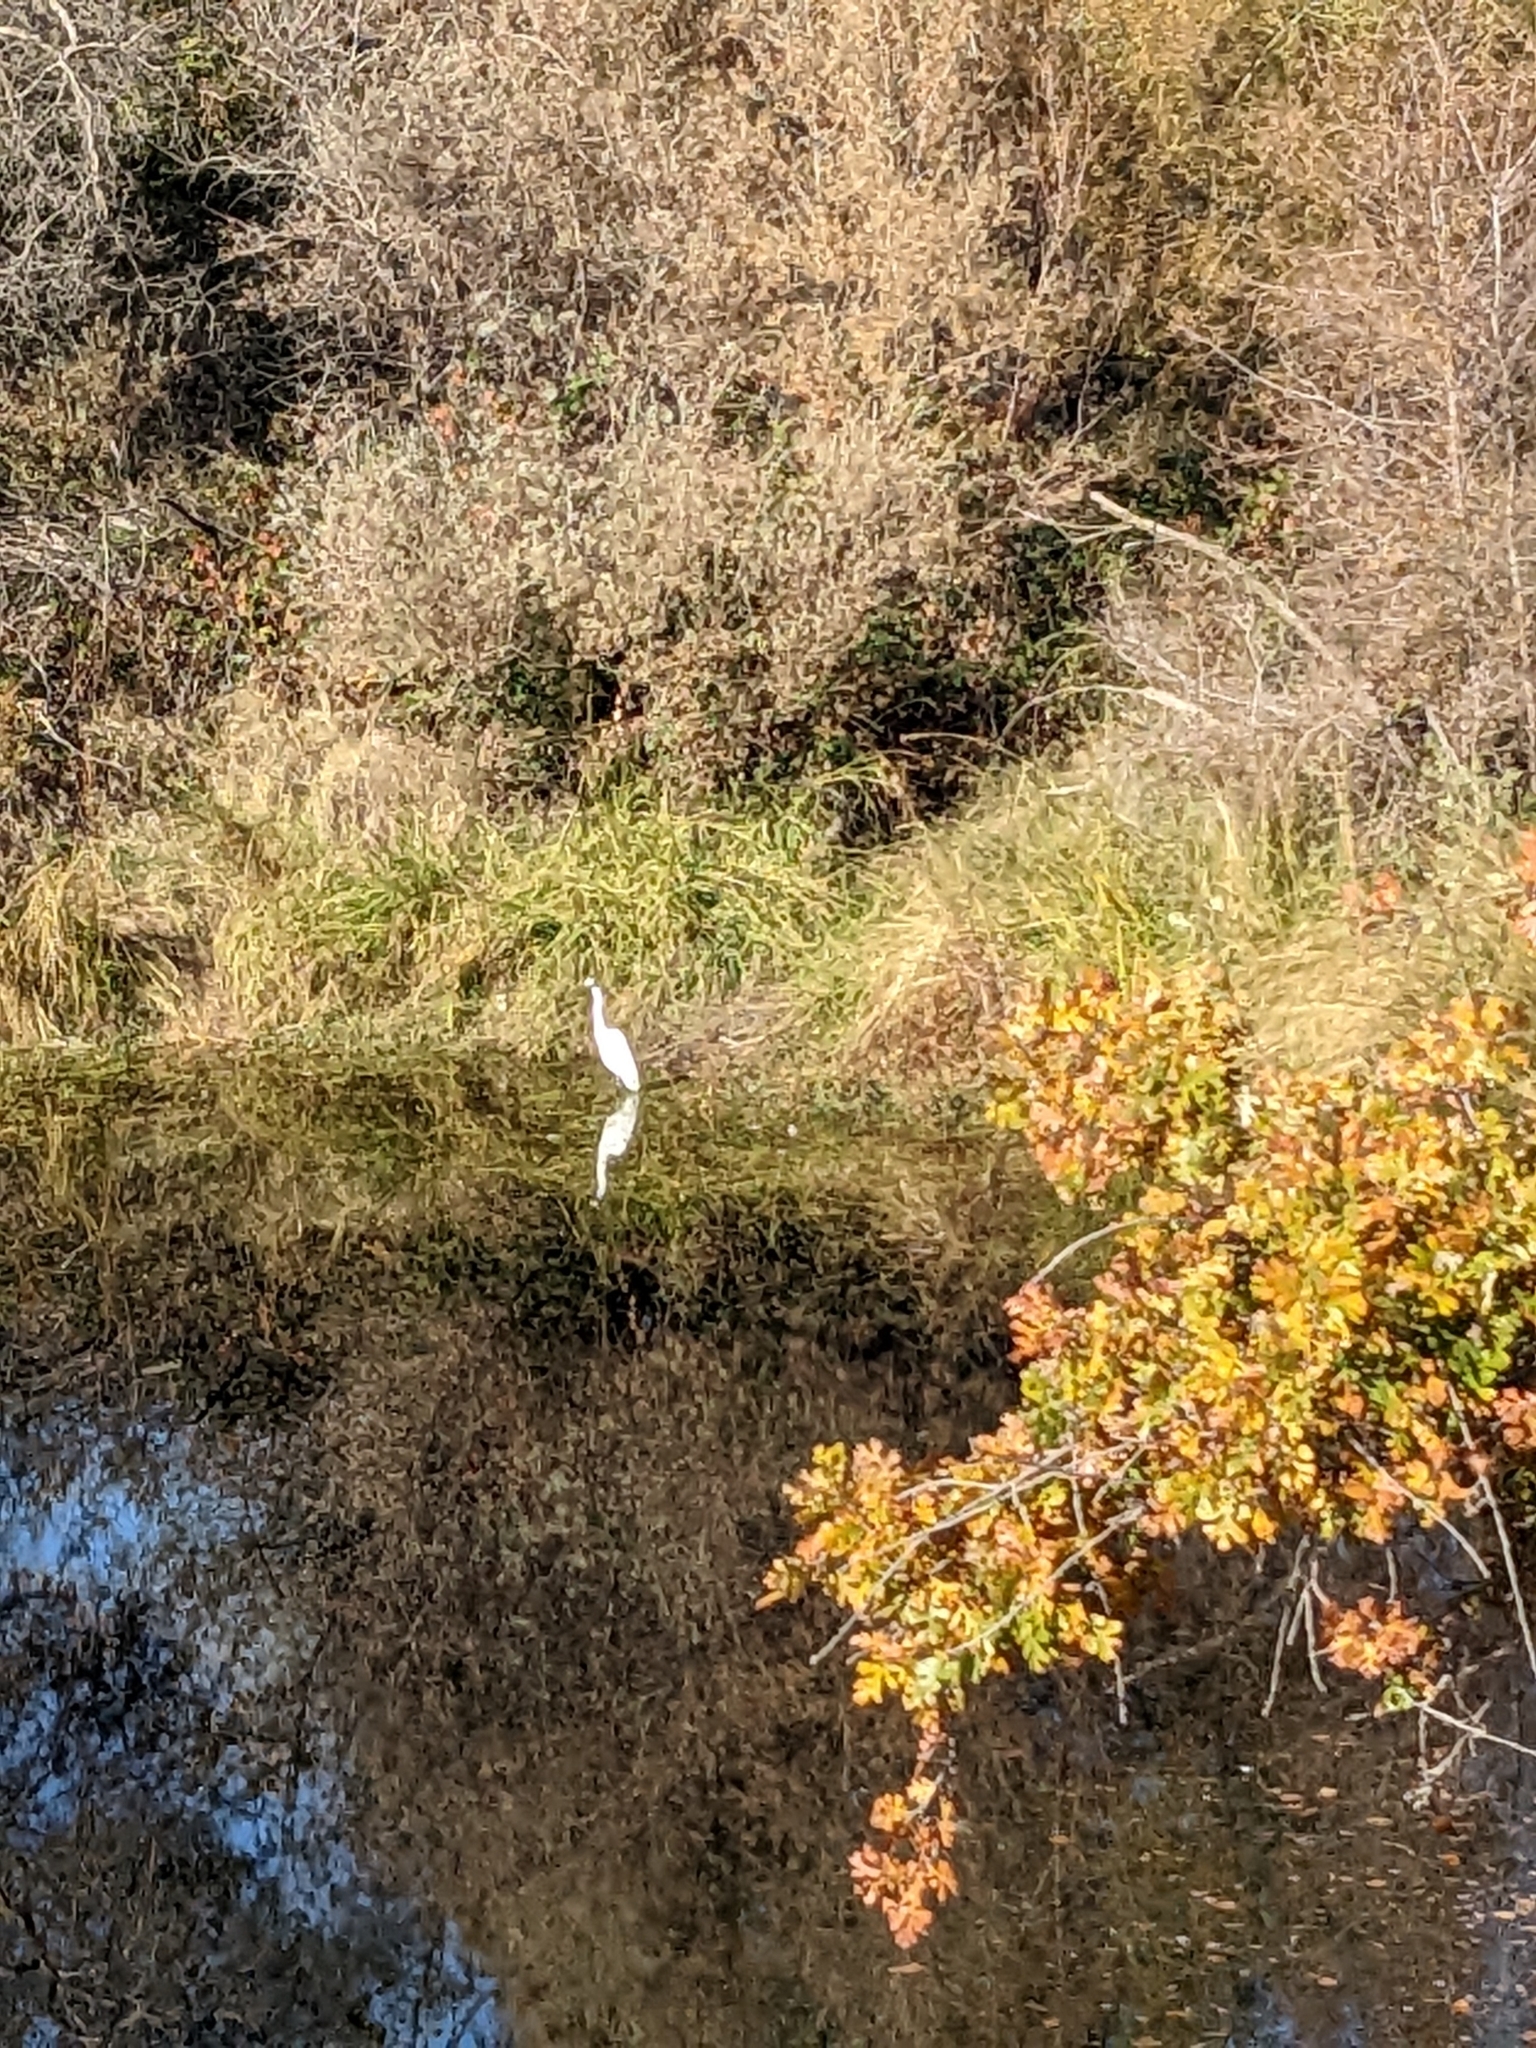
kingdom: Animalia
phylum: Chordata
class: Aves
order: Pelecaniformes
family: Ardeidae
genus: Ardea
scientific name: Ardea alba
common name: Great egret
